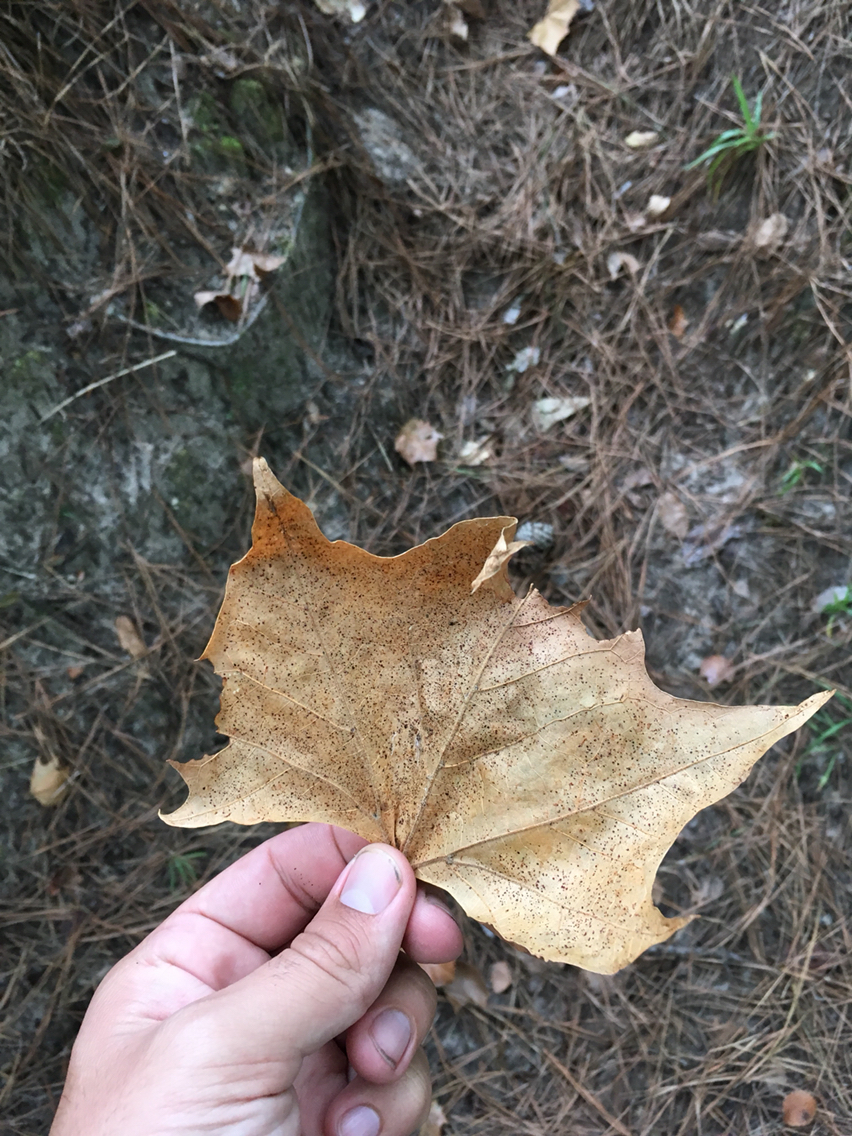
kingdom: Plantae
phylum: Tracheophyta
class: Magnoliopsida
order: Proteales
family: Platanaceae
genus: Platanus
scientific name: Platanus occidentalis
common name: American sycamore
